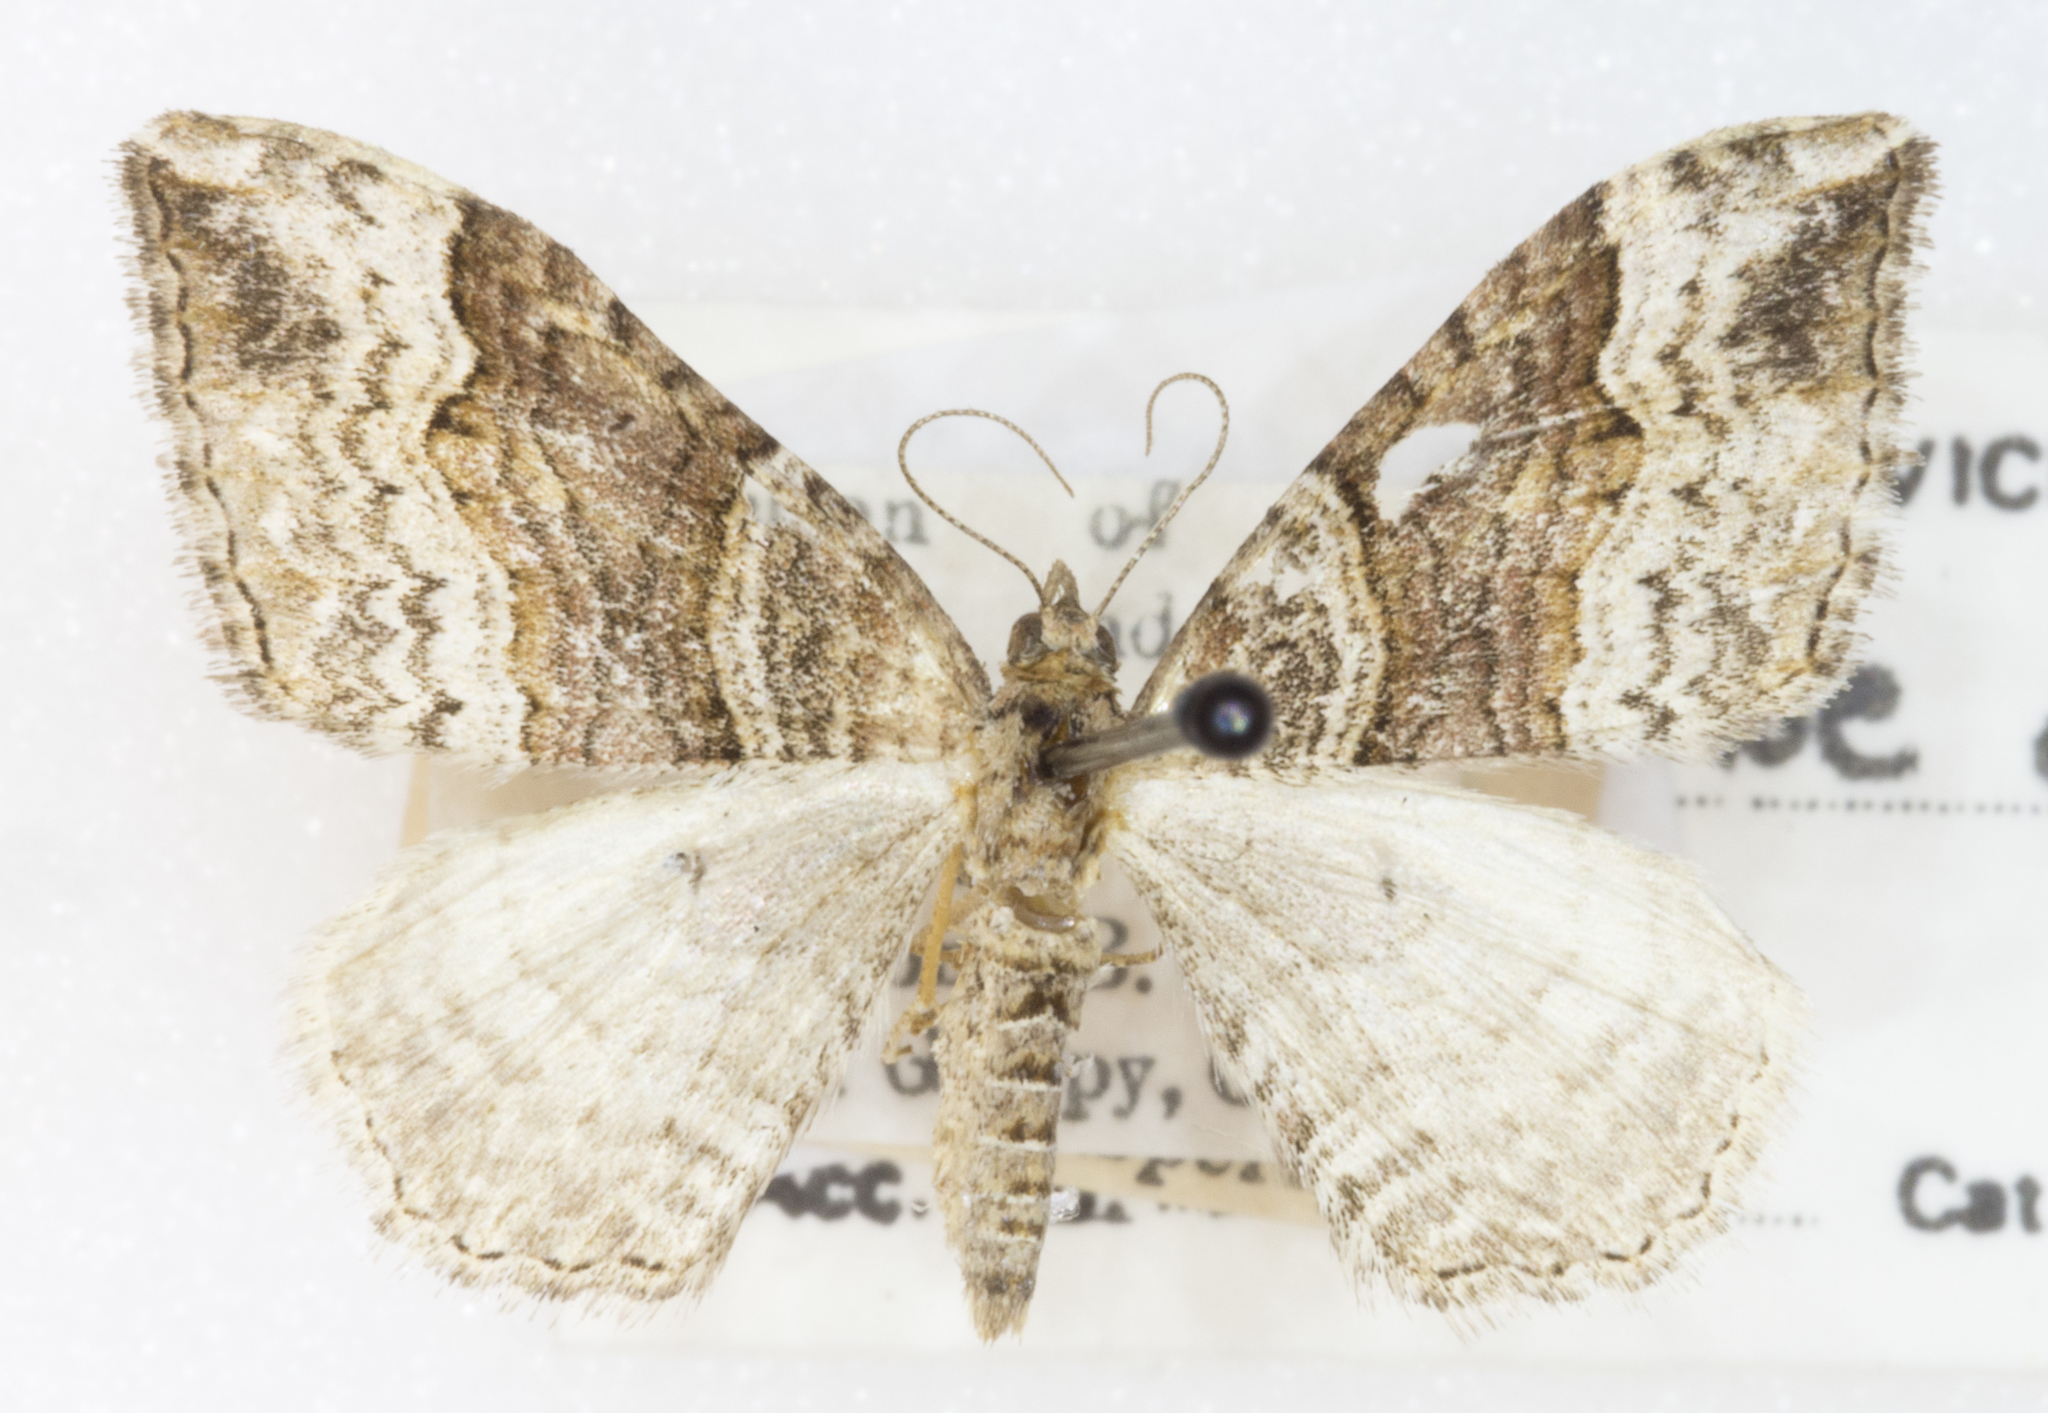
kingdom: Animalia
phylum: Arthropoda
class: Insecta
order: Lepidoptera
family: Geometridae
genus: Xanthorhoe
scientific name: Xanthorhoe defensaria
